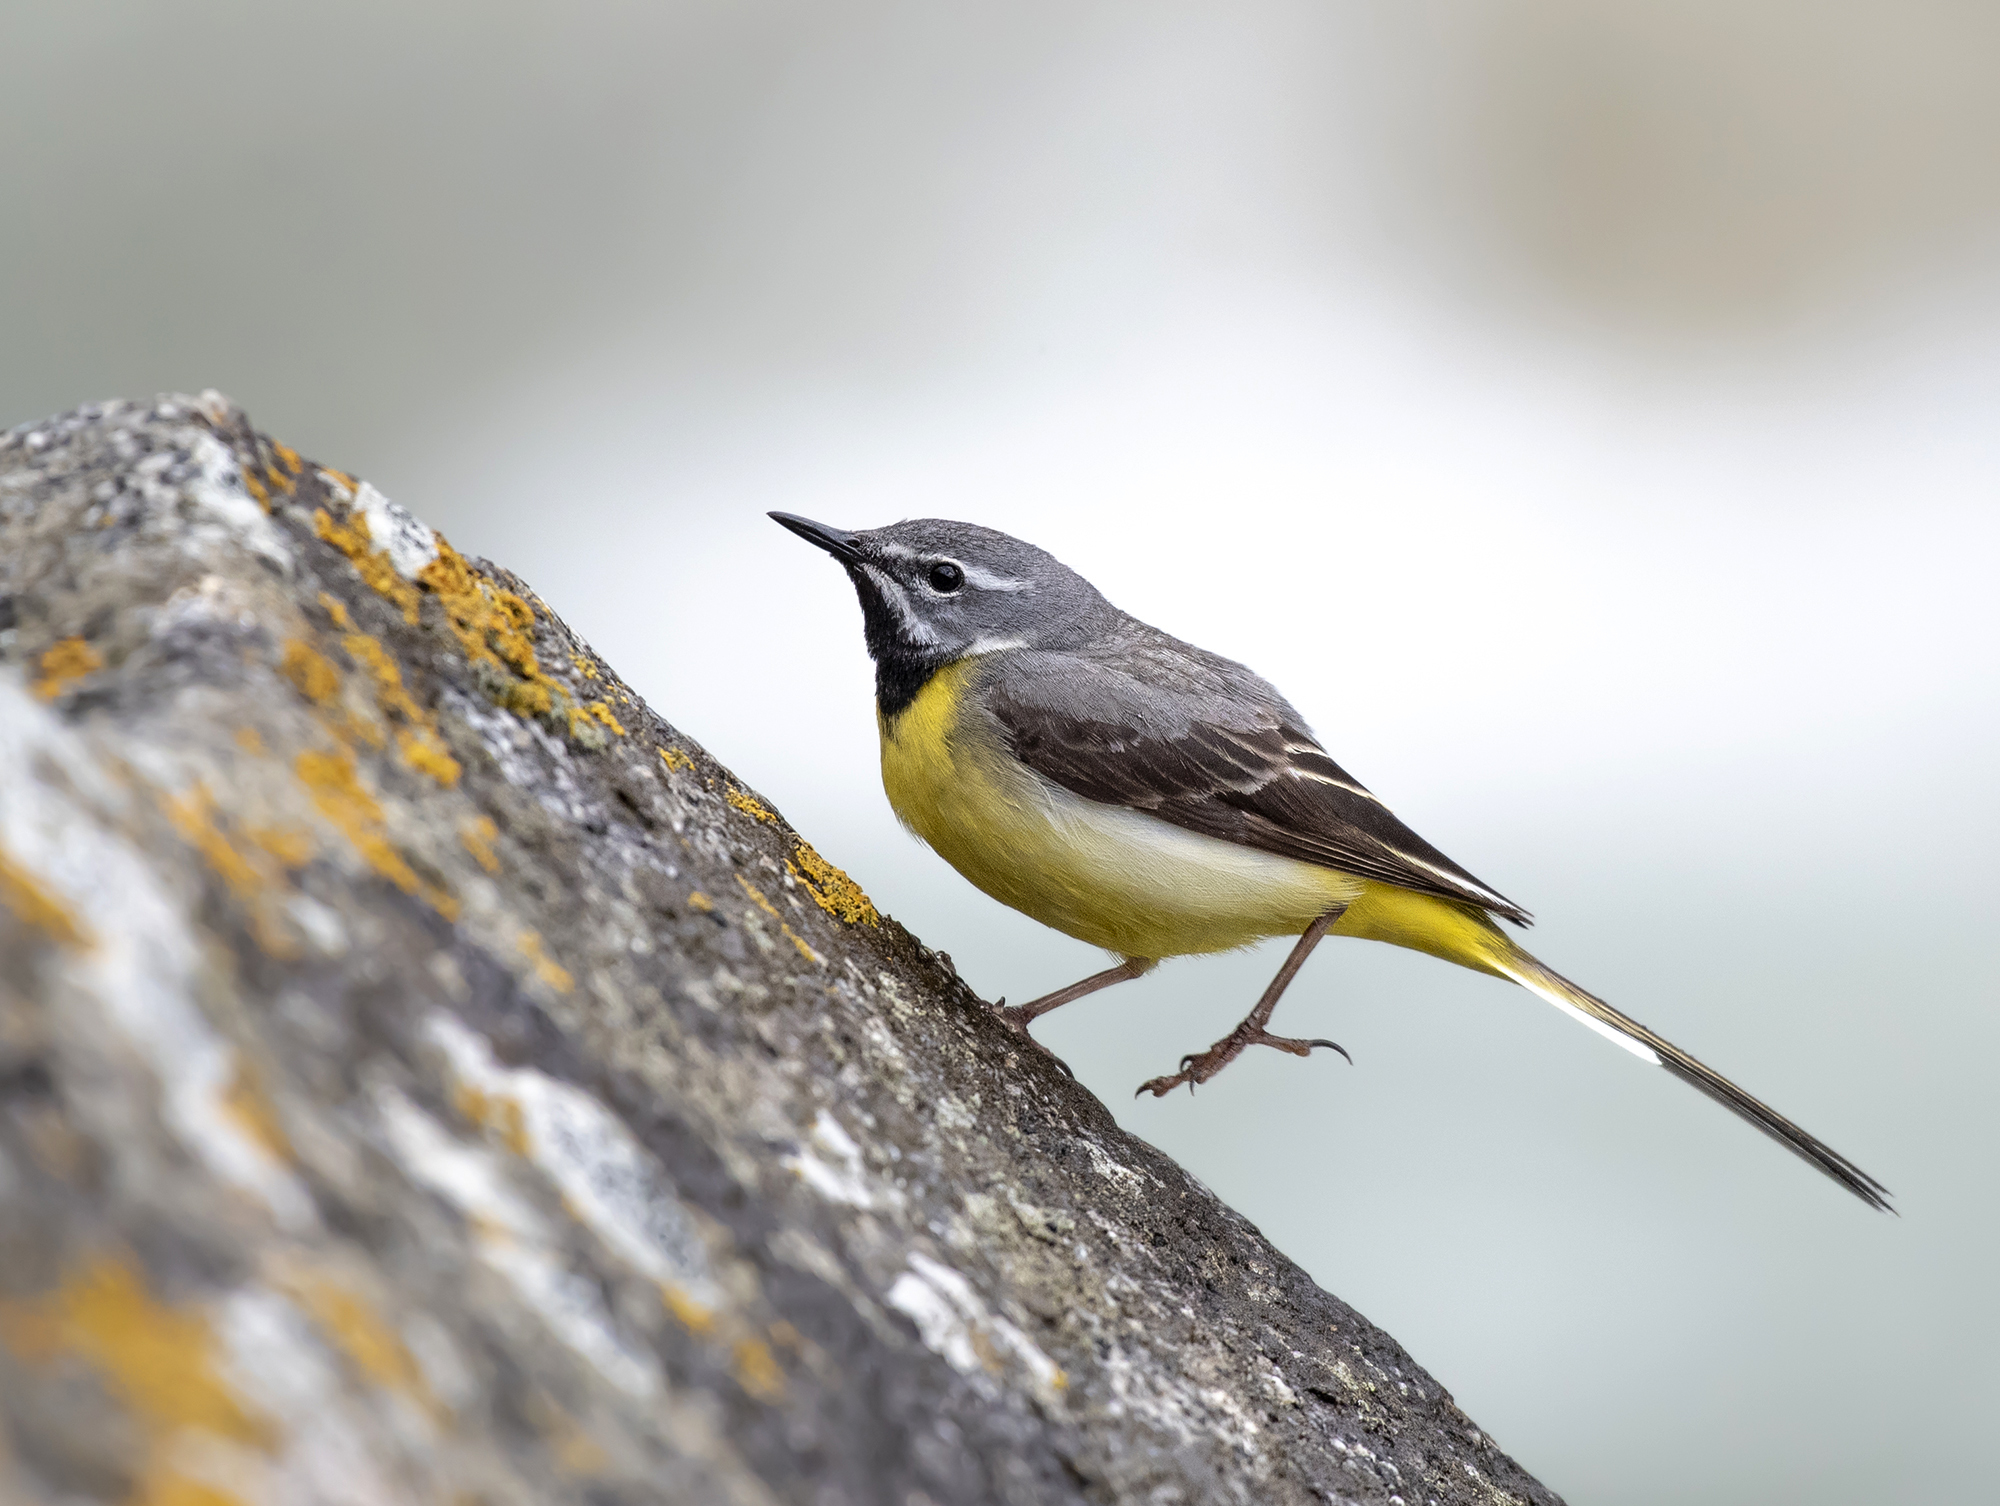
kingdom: Animalia
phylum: Chordata
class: Aves
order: Passeriformes
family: Motacillidae
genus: Motacilla
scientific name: Motacilla cinerea
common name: Grey wagtail
